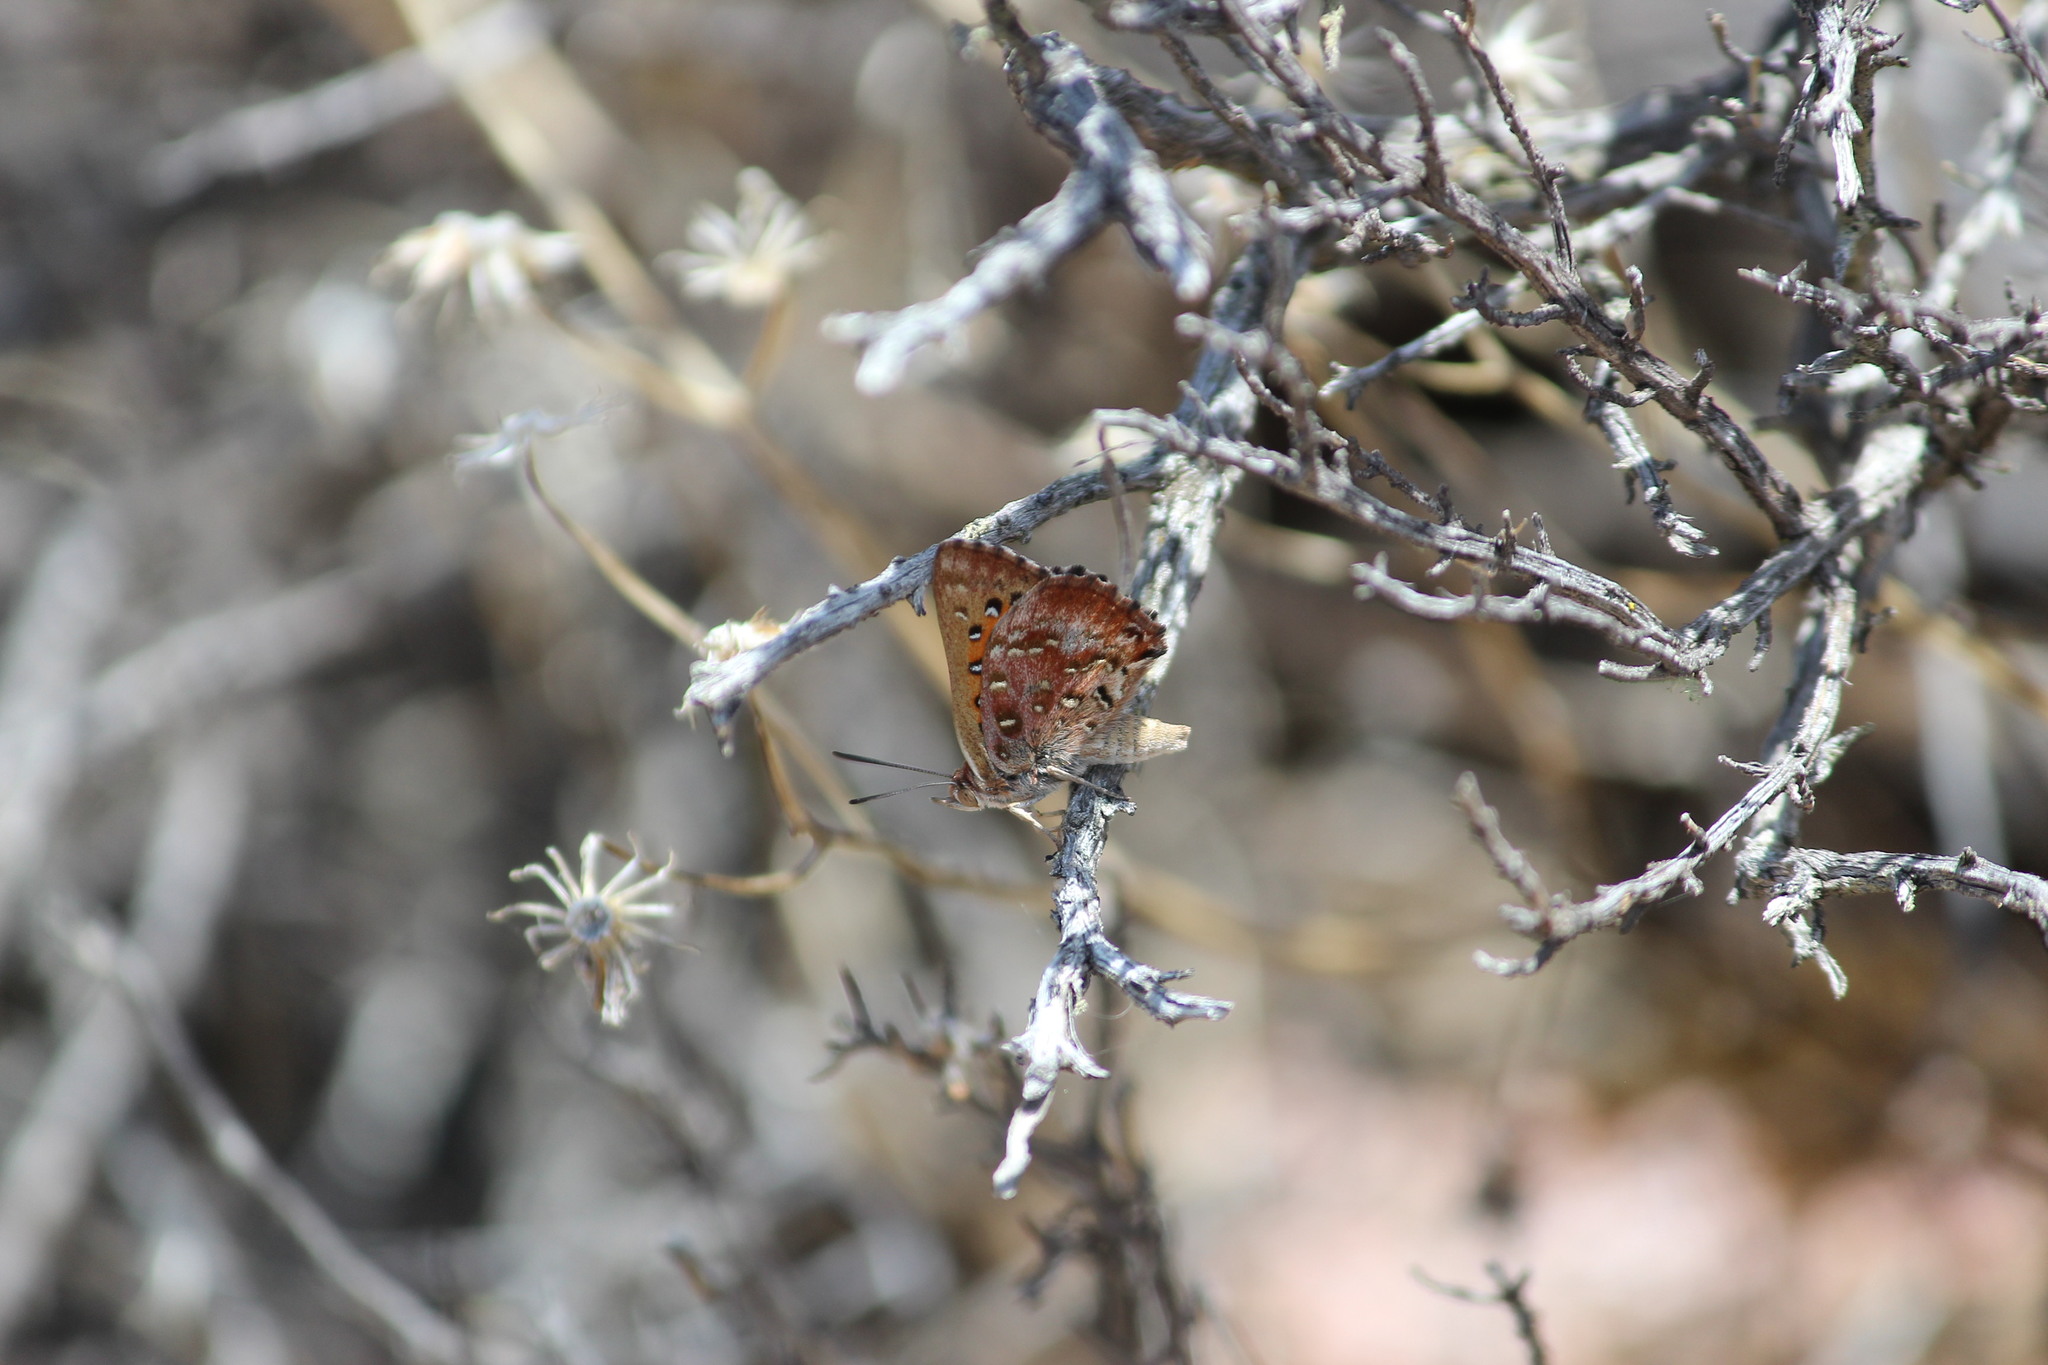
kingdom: Animalia
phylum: Arthropoda
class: Insecta
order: Lepidoptera
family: Lycaenidae
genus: Aloeides
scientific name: Aloeides pierus
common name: Dull copper
